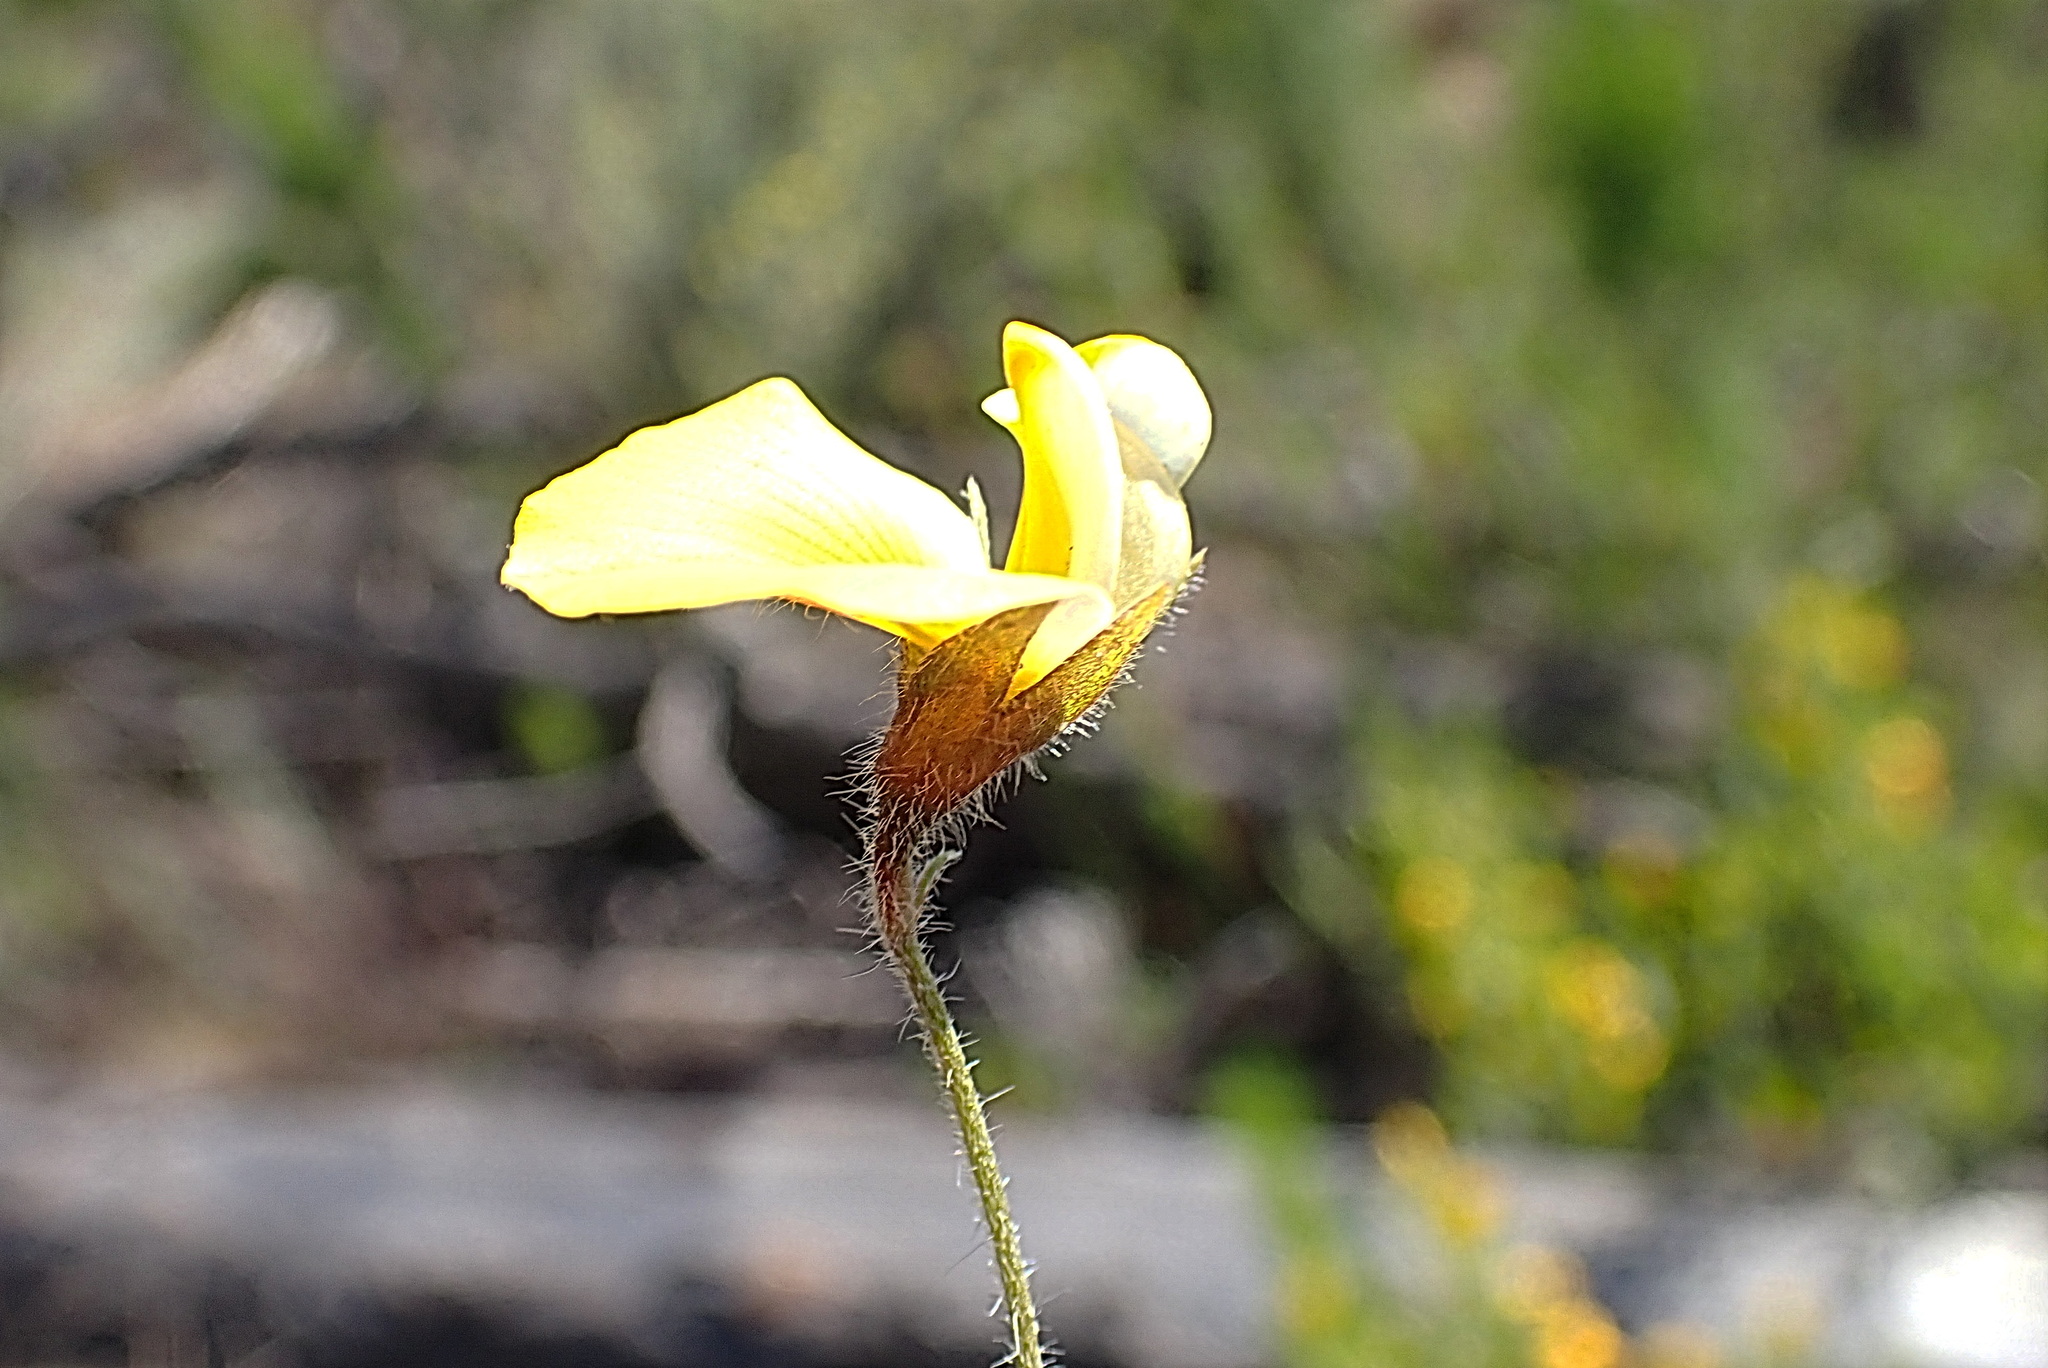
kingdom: Plantae
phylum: Tracheophyta
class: Magnoliopsida
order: Fabales
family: Fabaceae
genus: Lotononis
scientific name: Lotononis elongata
